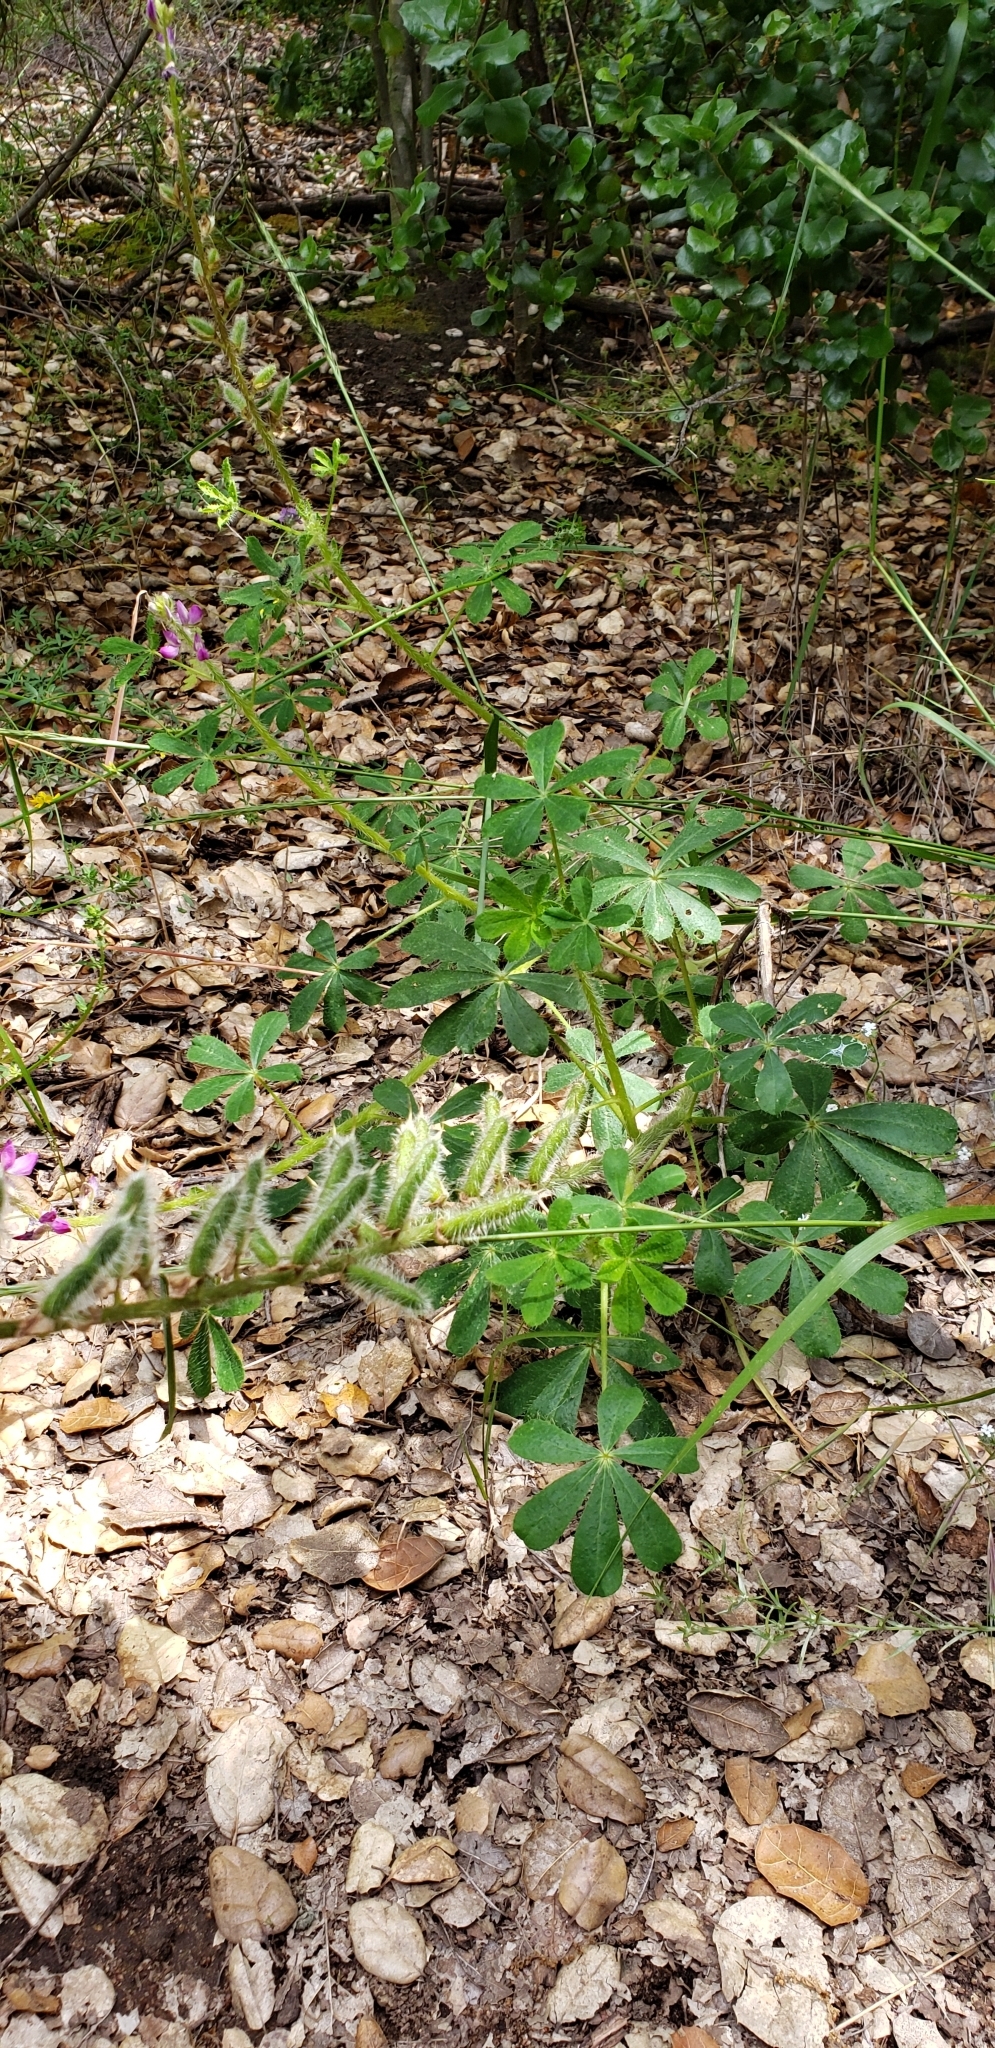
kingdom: Plantae
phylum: Tracheophyta
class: Magnoliopsida
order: Fabales
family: Fabaceae
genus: Lupinus
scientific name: Lupinus hirsutissimus
